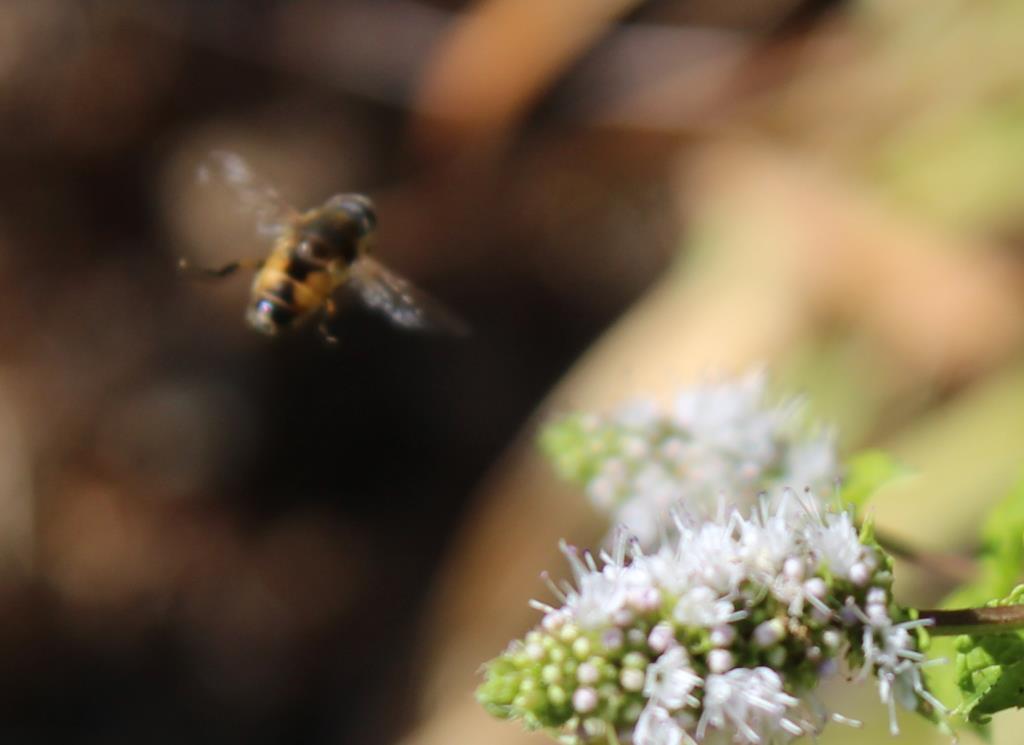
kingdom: Animalia
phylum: Arthropoda
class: Insecta
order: Diptera
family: Syrphidae
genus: Eristalis
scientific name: Eristalis arbustorum
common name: Hover fly
